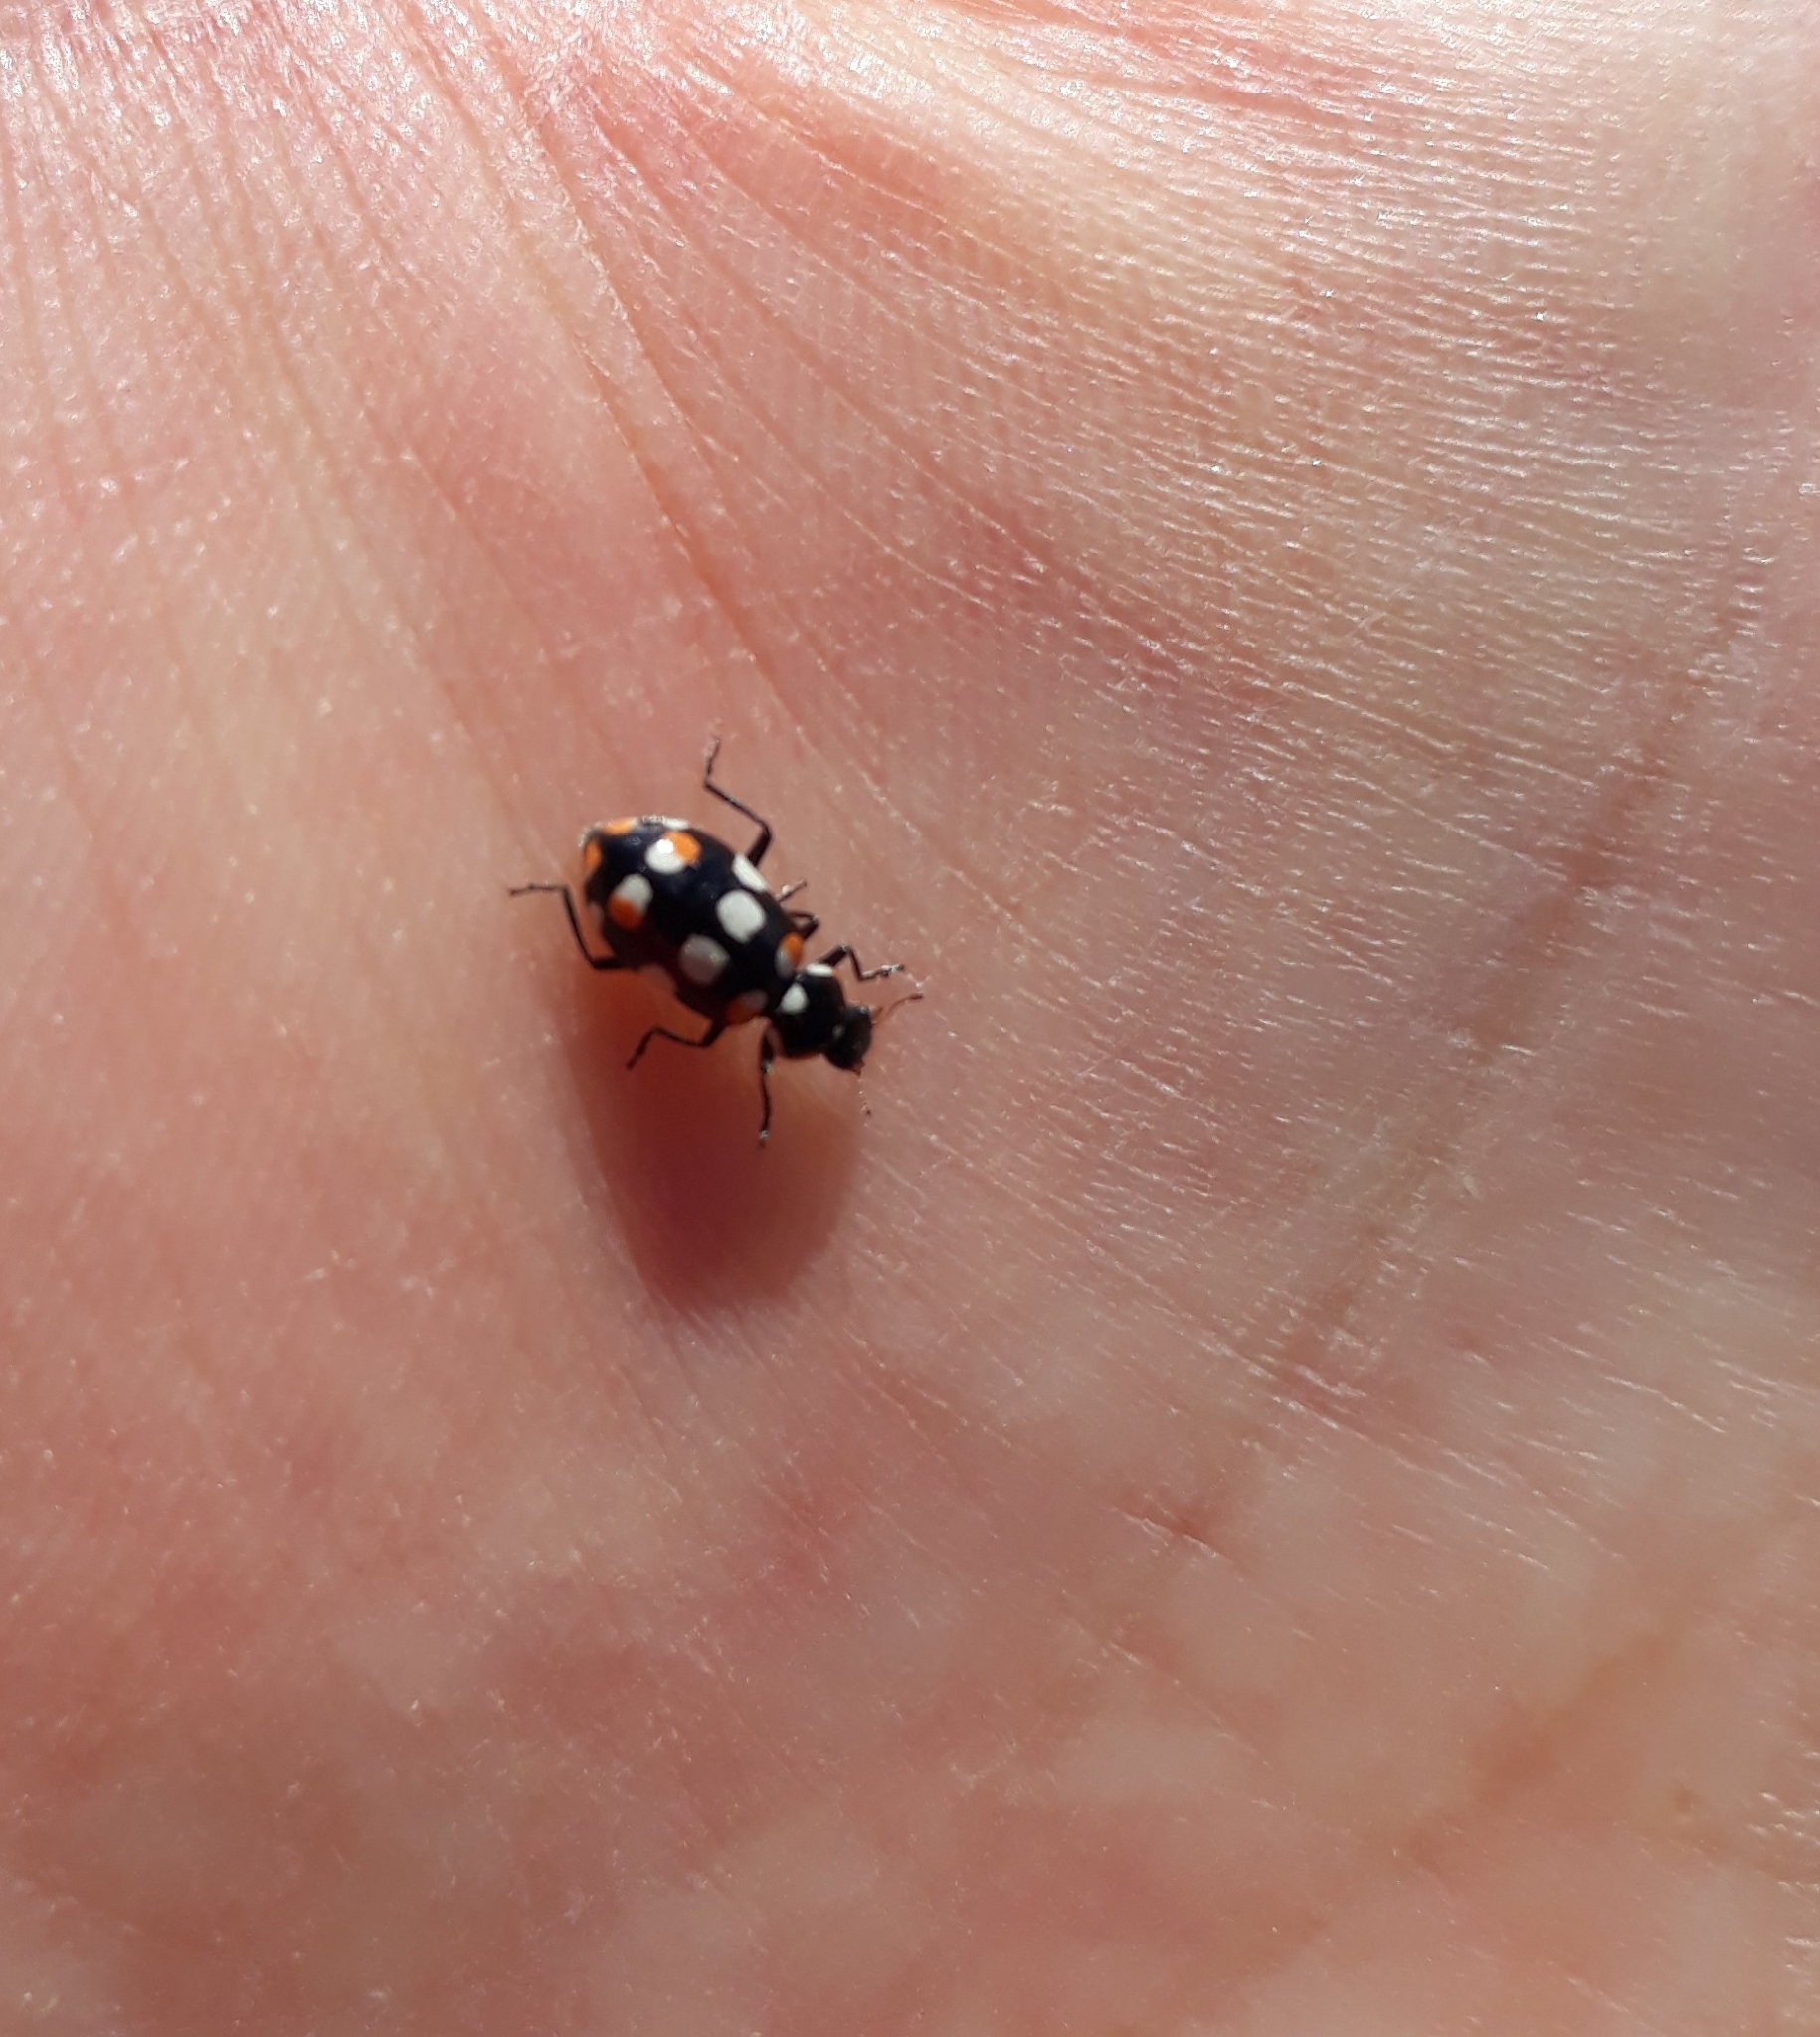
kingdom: Animalia
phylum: Arthropoda
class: Insecta
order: Coleoptera
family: Coccinellidae
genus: Eriopis
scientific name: Eriopis connexa
